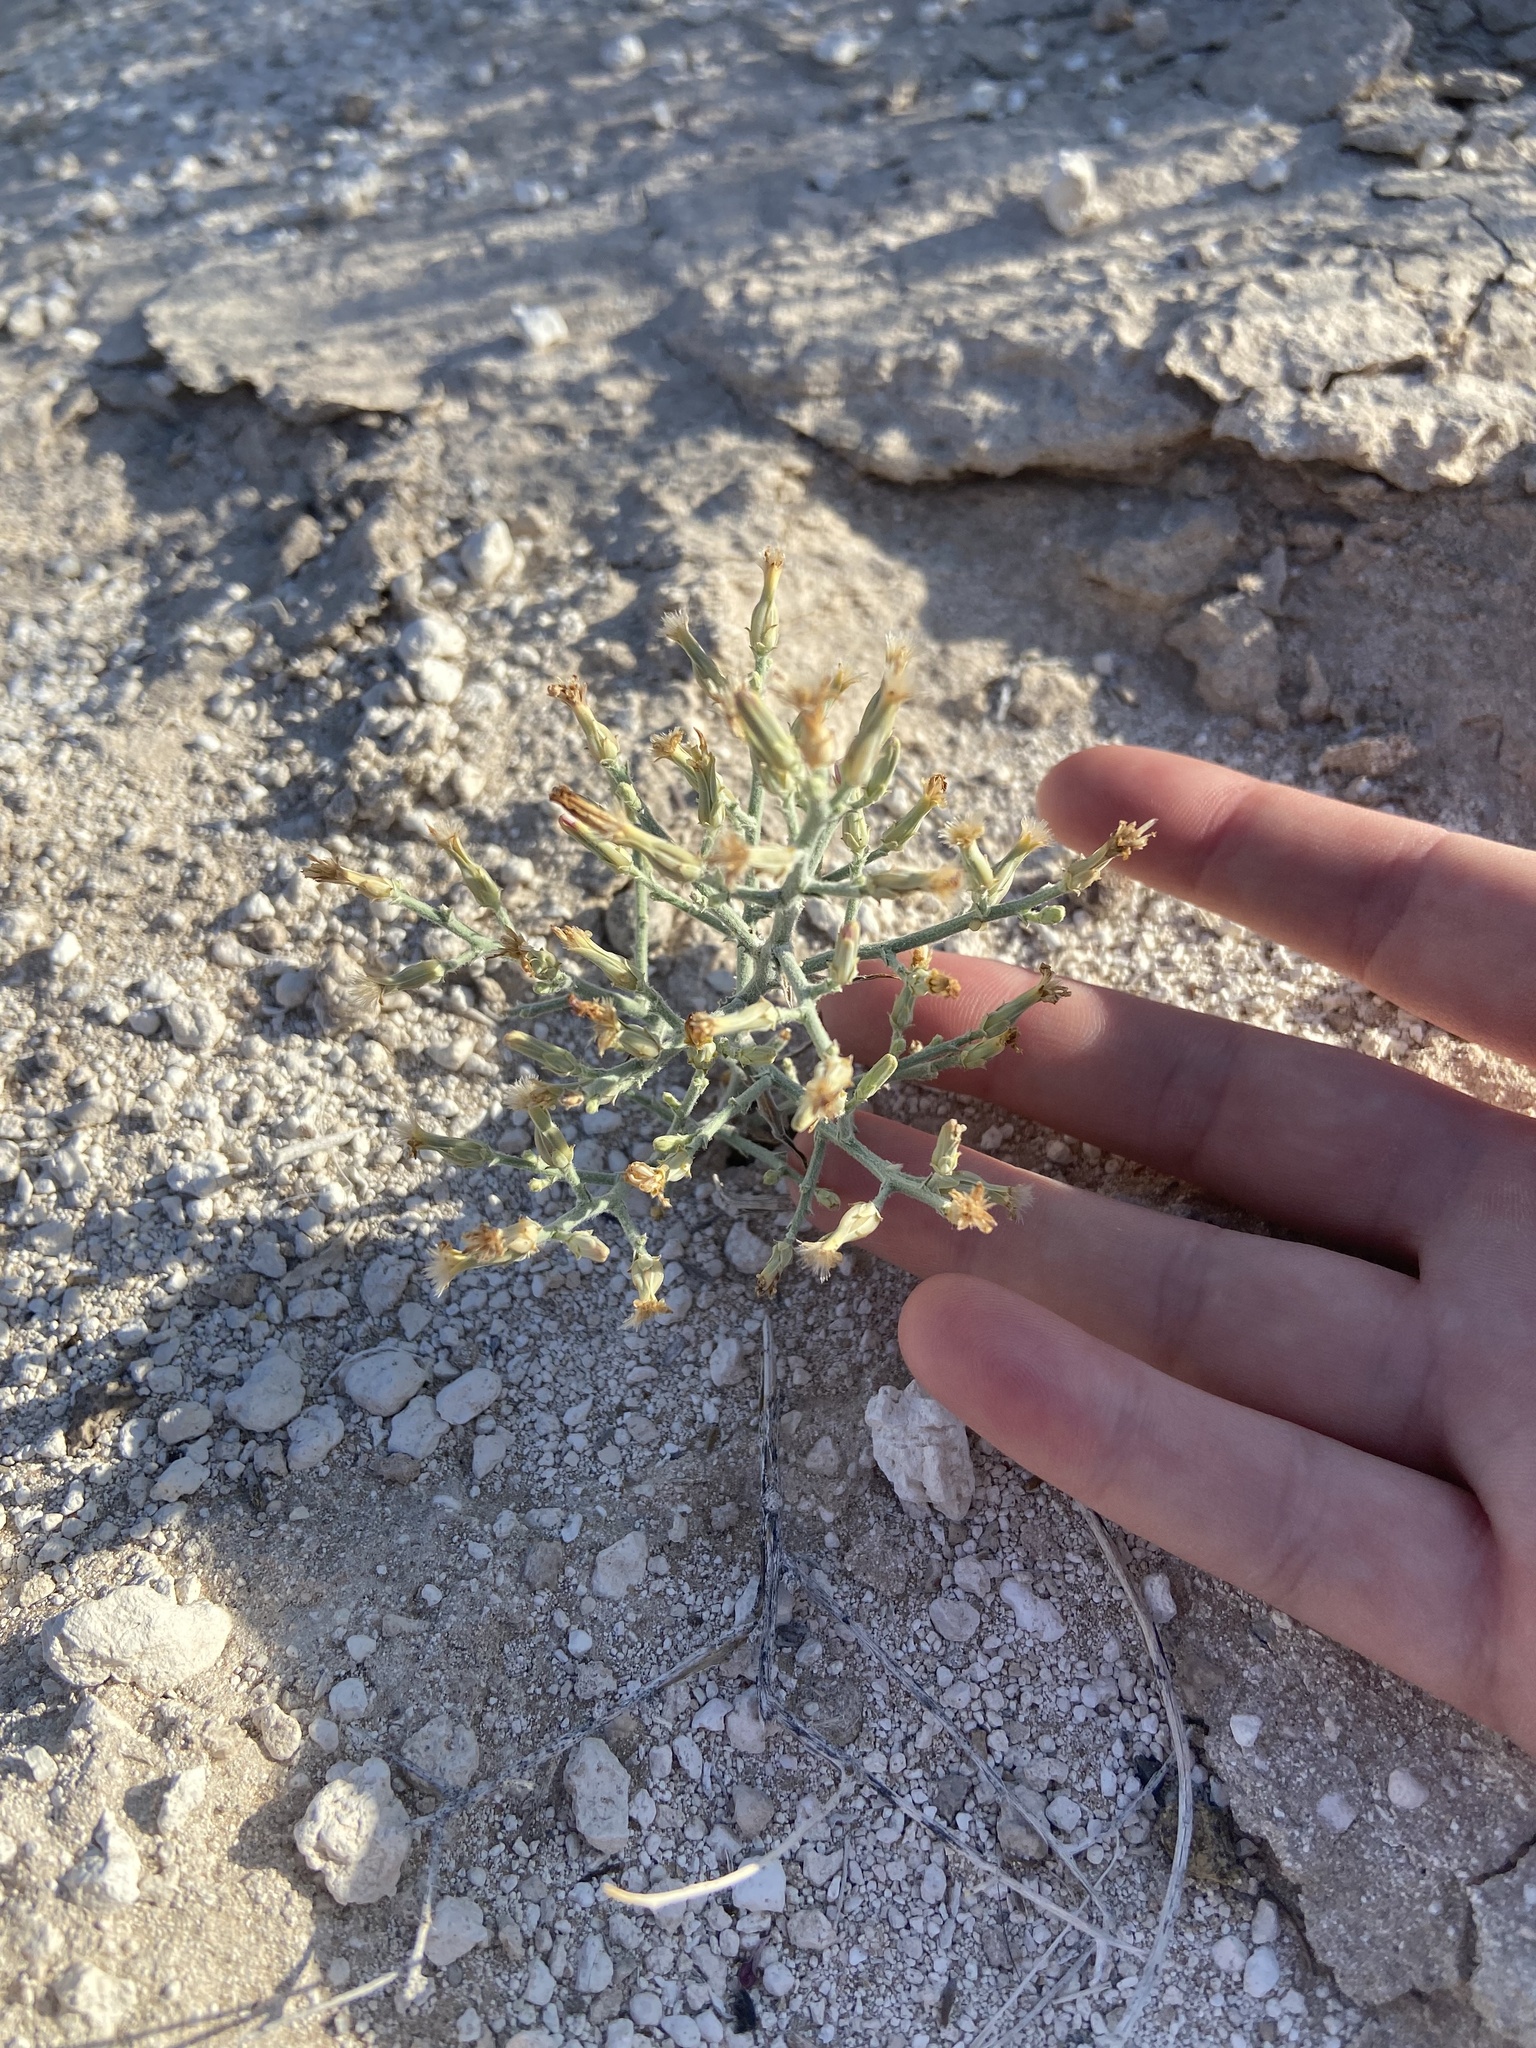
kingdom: Plantae
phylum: Tracheophyta
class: Magnoliopsida
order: Asterales
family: Asteraceae
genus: Stephanomeria
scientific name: Stephanomeria pauciflora
